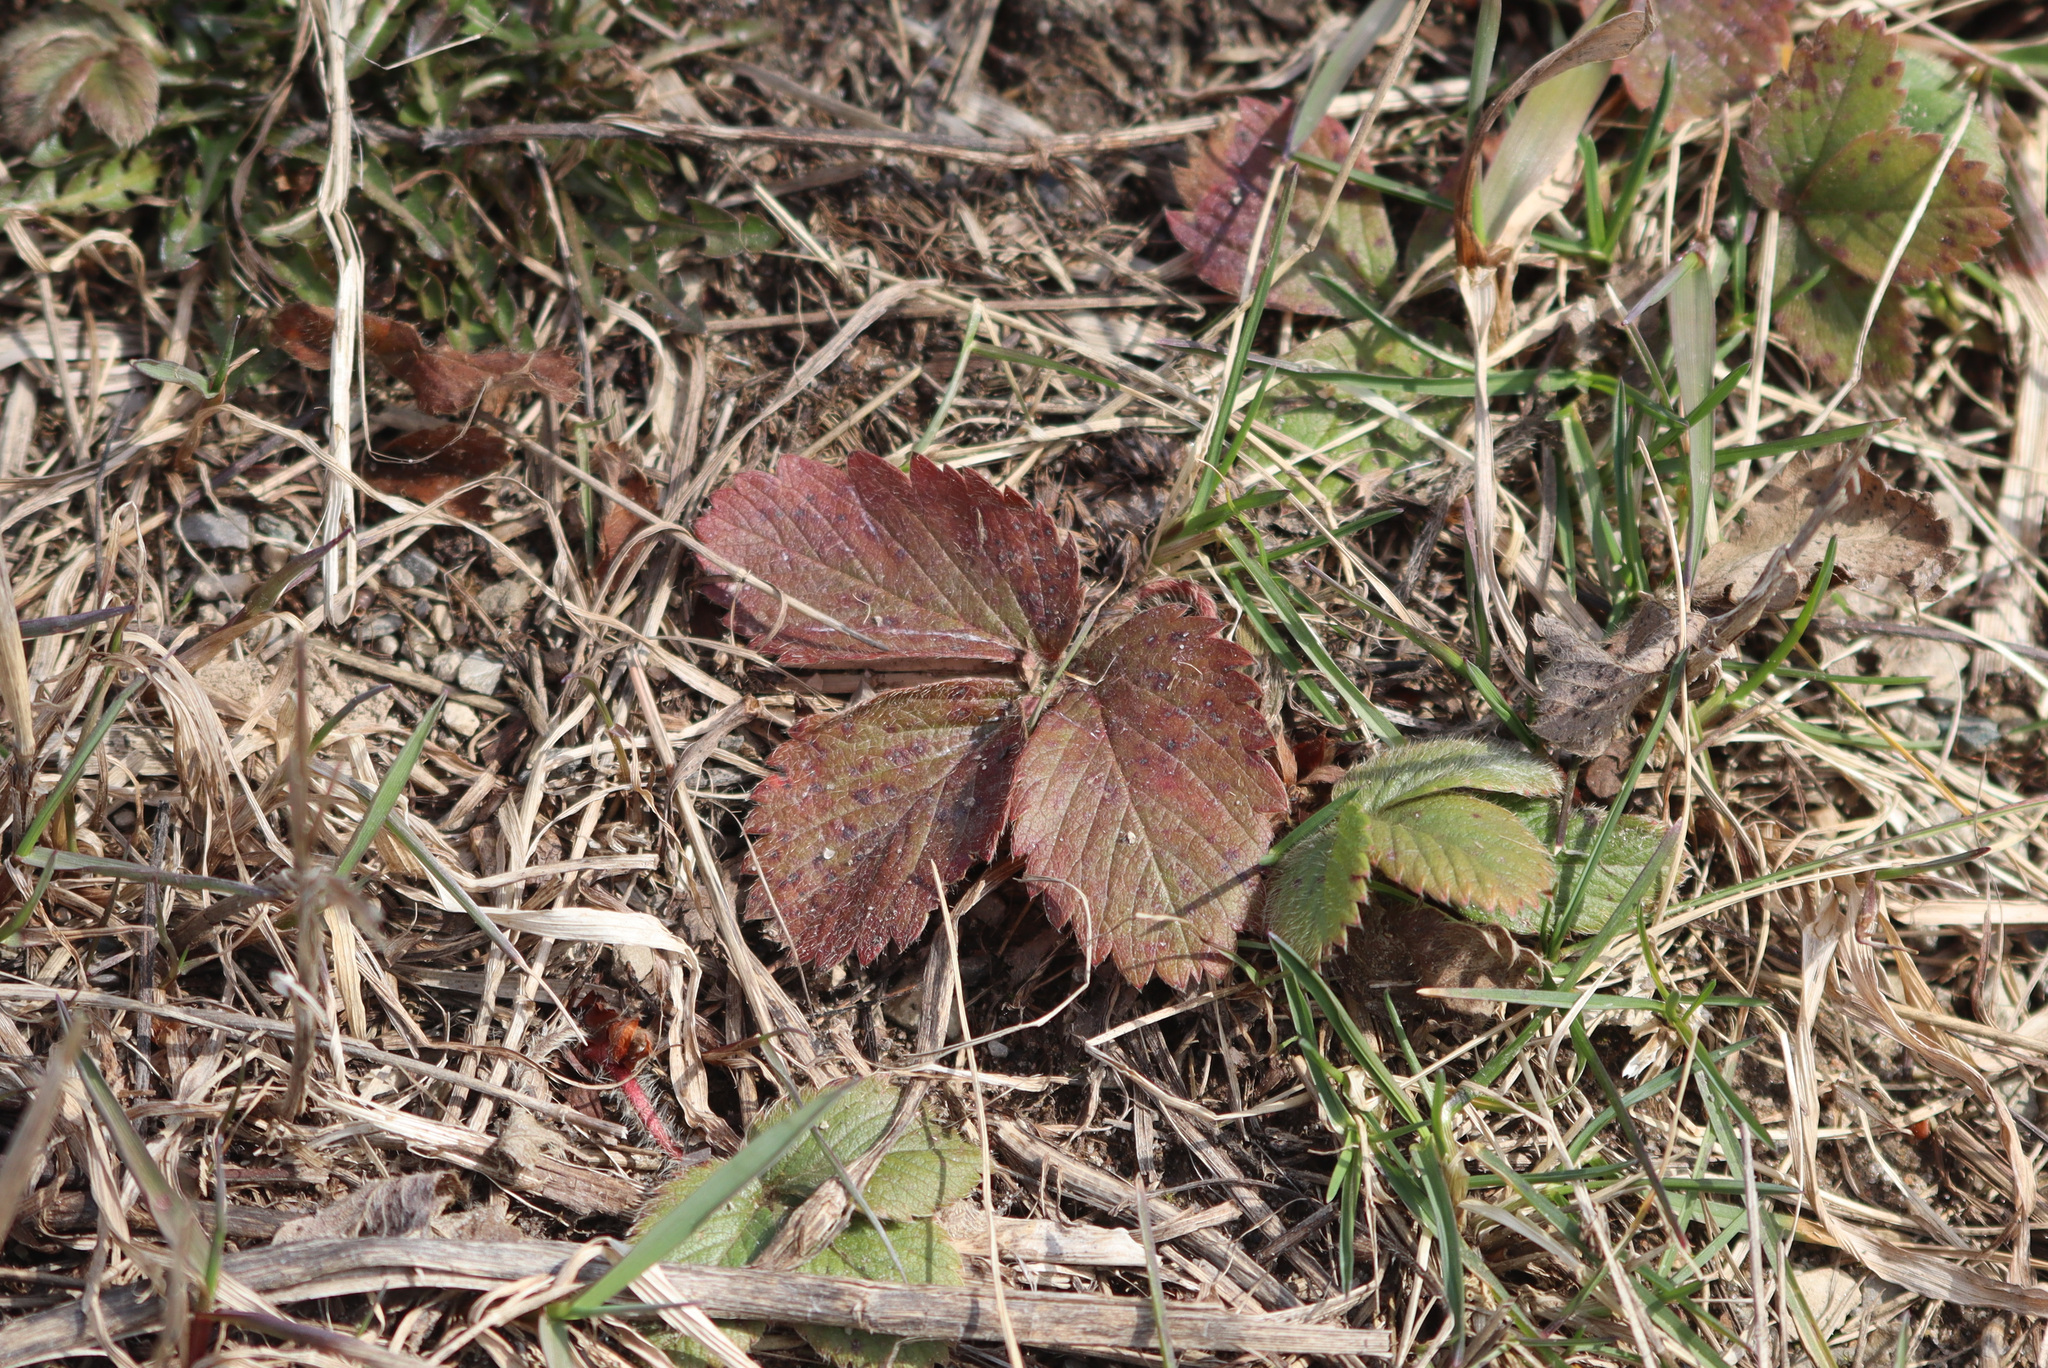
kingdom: Plantae
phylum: Tracheophyta
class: Magnoliopsida
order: Rosales
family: Rosaceae
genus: Fragaria
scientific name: Fragaria virginiana
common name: Thickleaved wild strawberry
